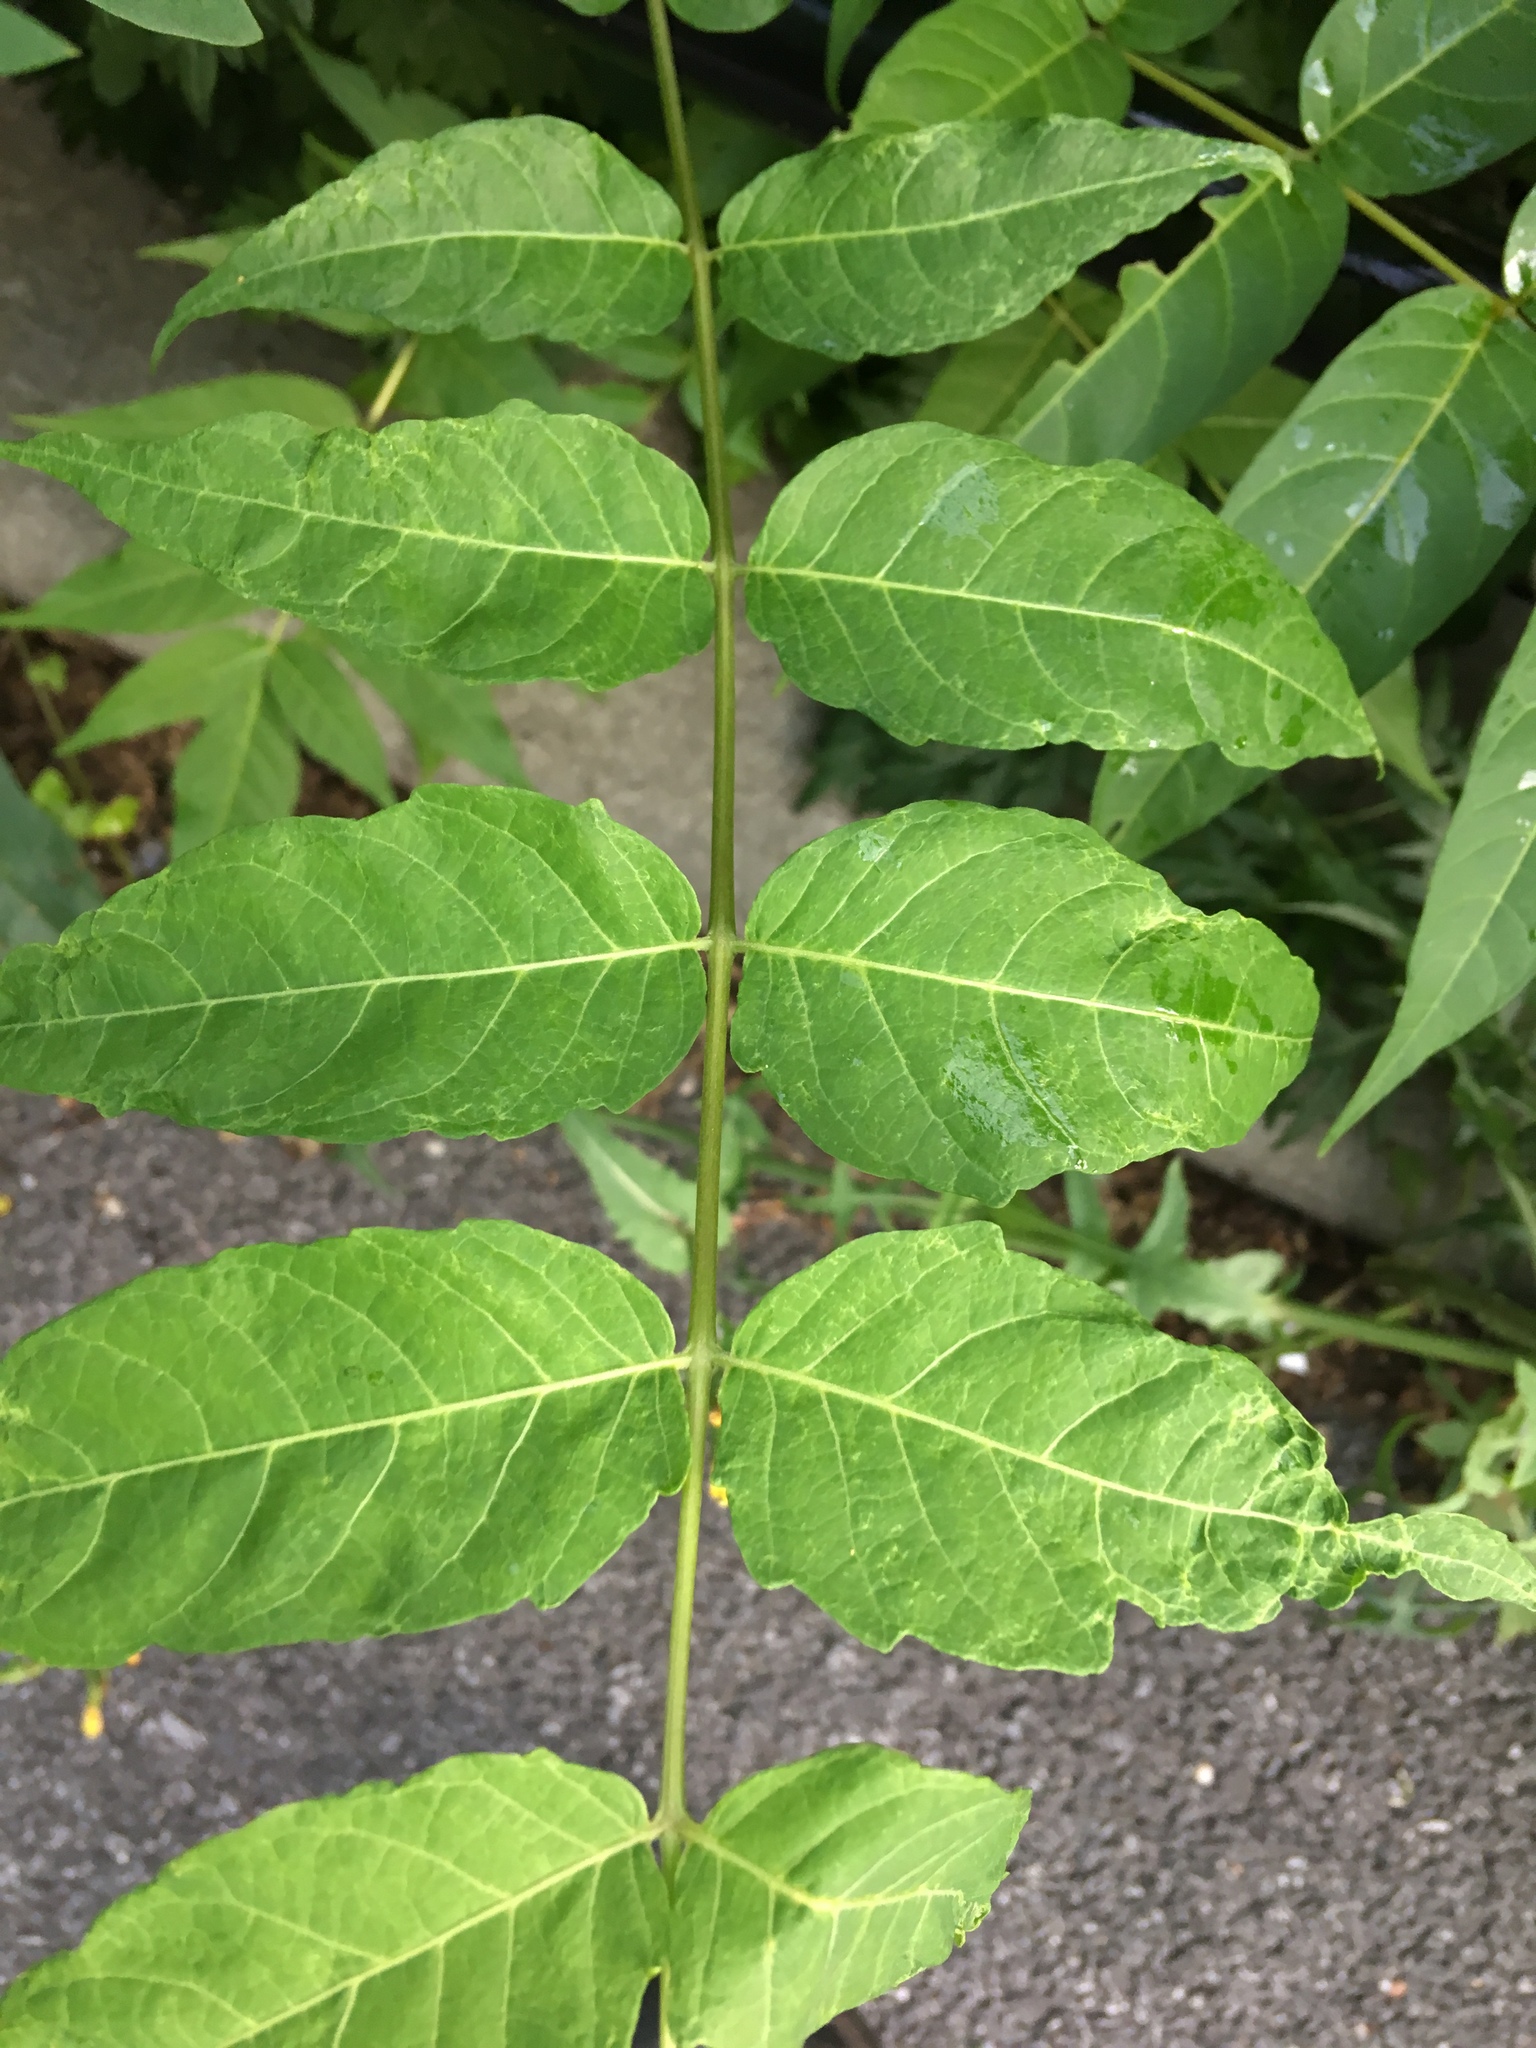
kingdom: Plantae
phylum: Tracheophyta
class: Magnoliopsida
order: Sapindales
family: Simaroubaceae
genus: Ailanthus
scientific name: Ailanthus altissima
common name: Tree-of-heaven
